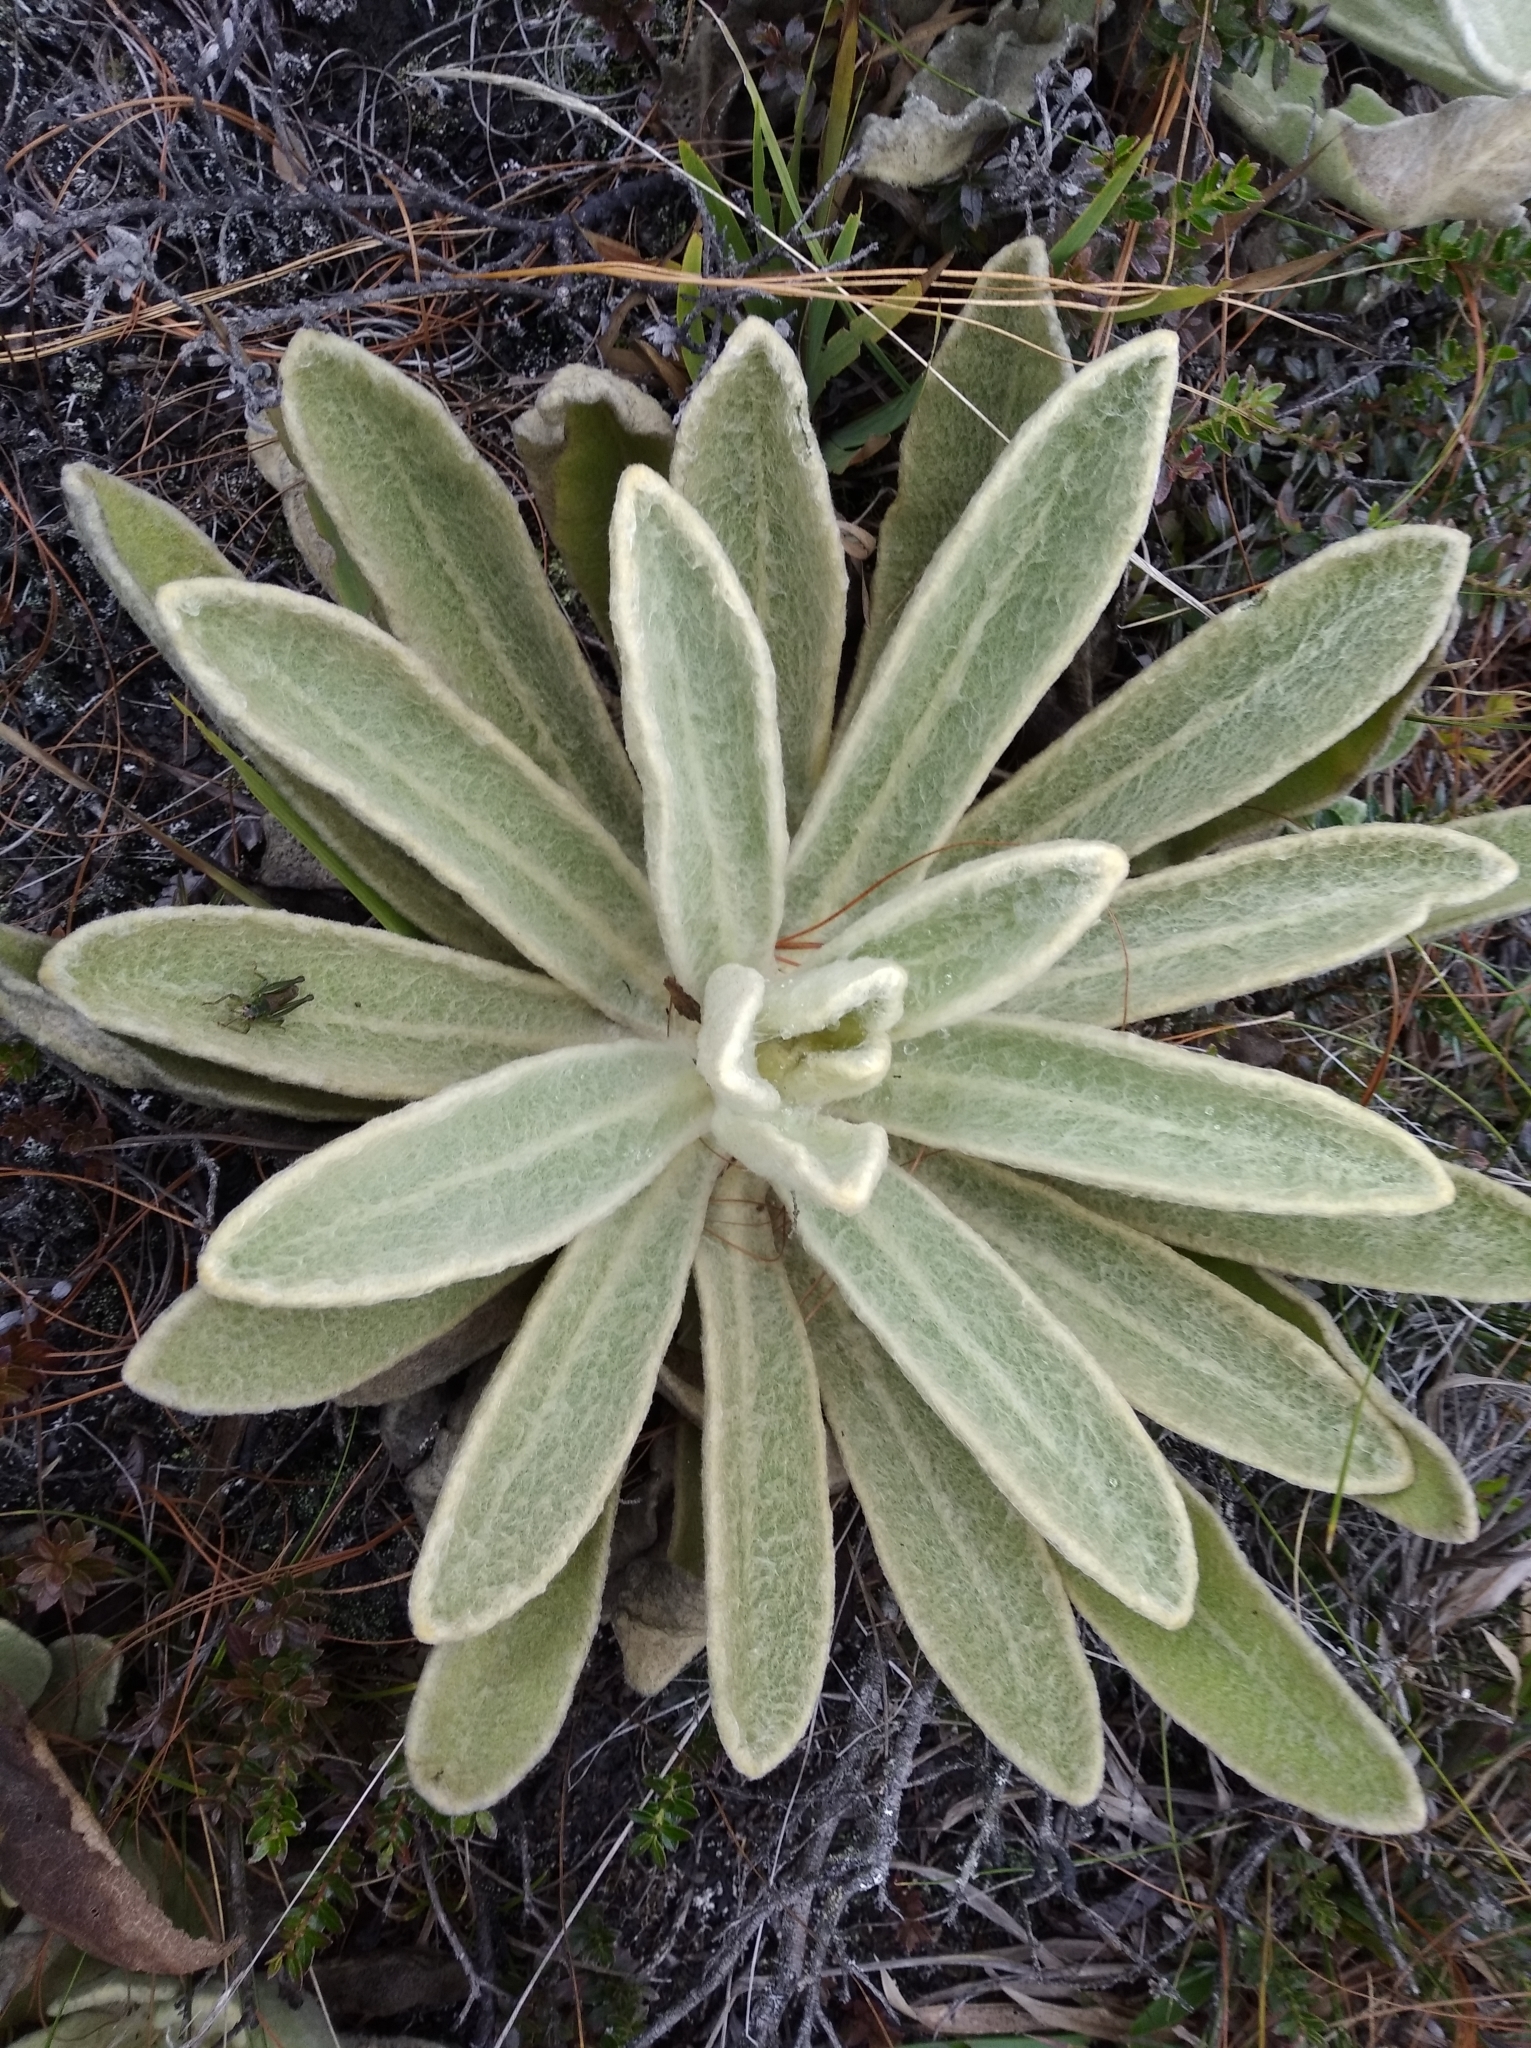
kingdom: Plantae
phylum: Tracheophyta
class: Magnoliopsida
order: Asterales
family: Asteraceae
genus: Espeletia
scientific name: Espeletia aristeguietana
